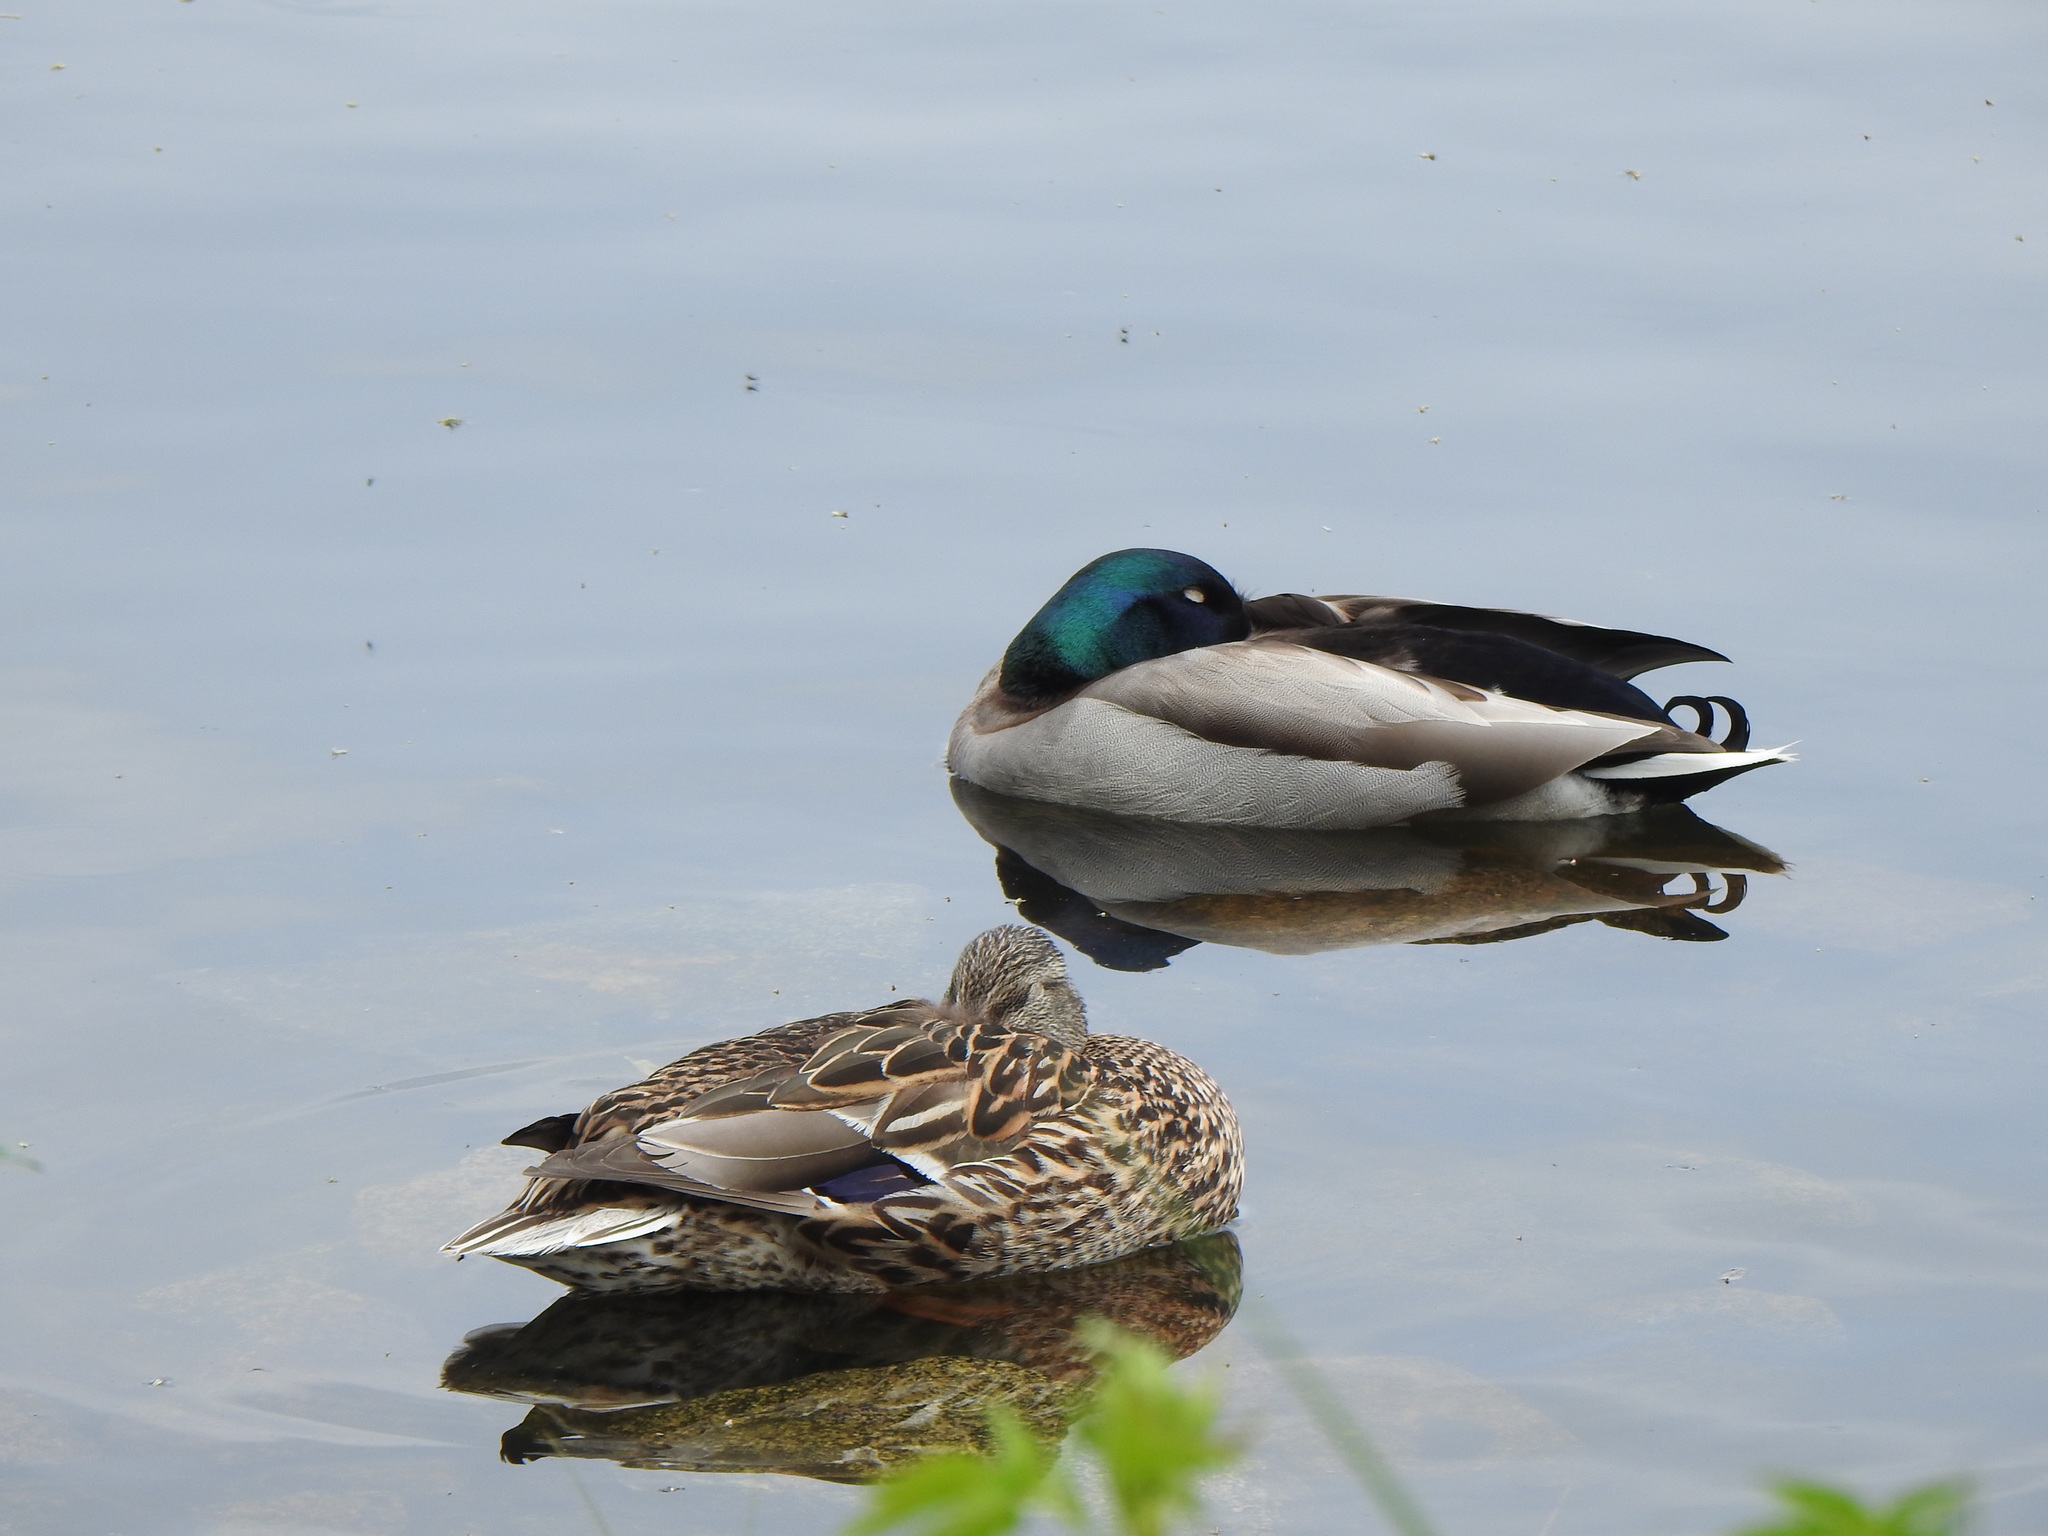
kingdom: Animalia
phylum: Chordata
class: Aves
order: Anseriformes
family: Anatidae
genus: Anas
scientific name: Anas platyrhynchos
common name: Mallard
